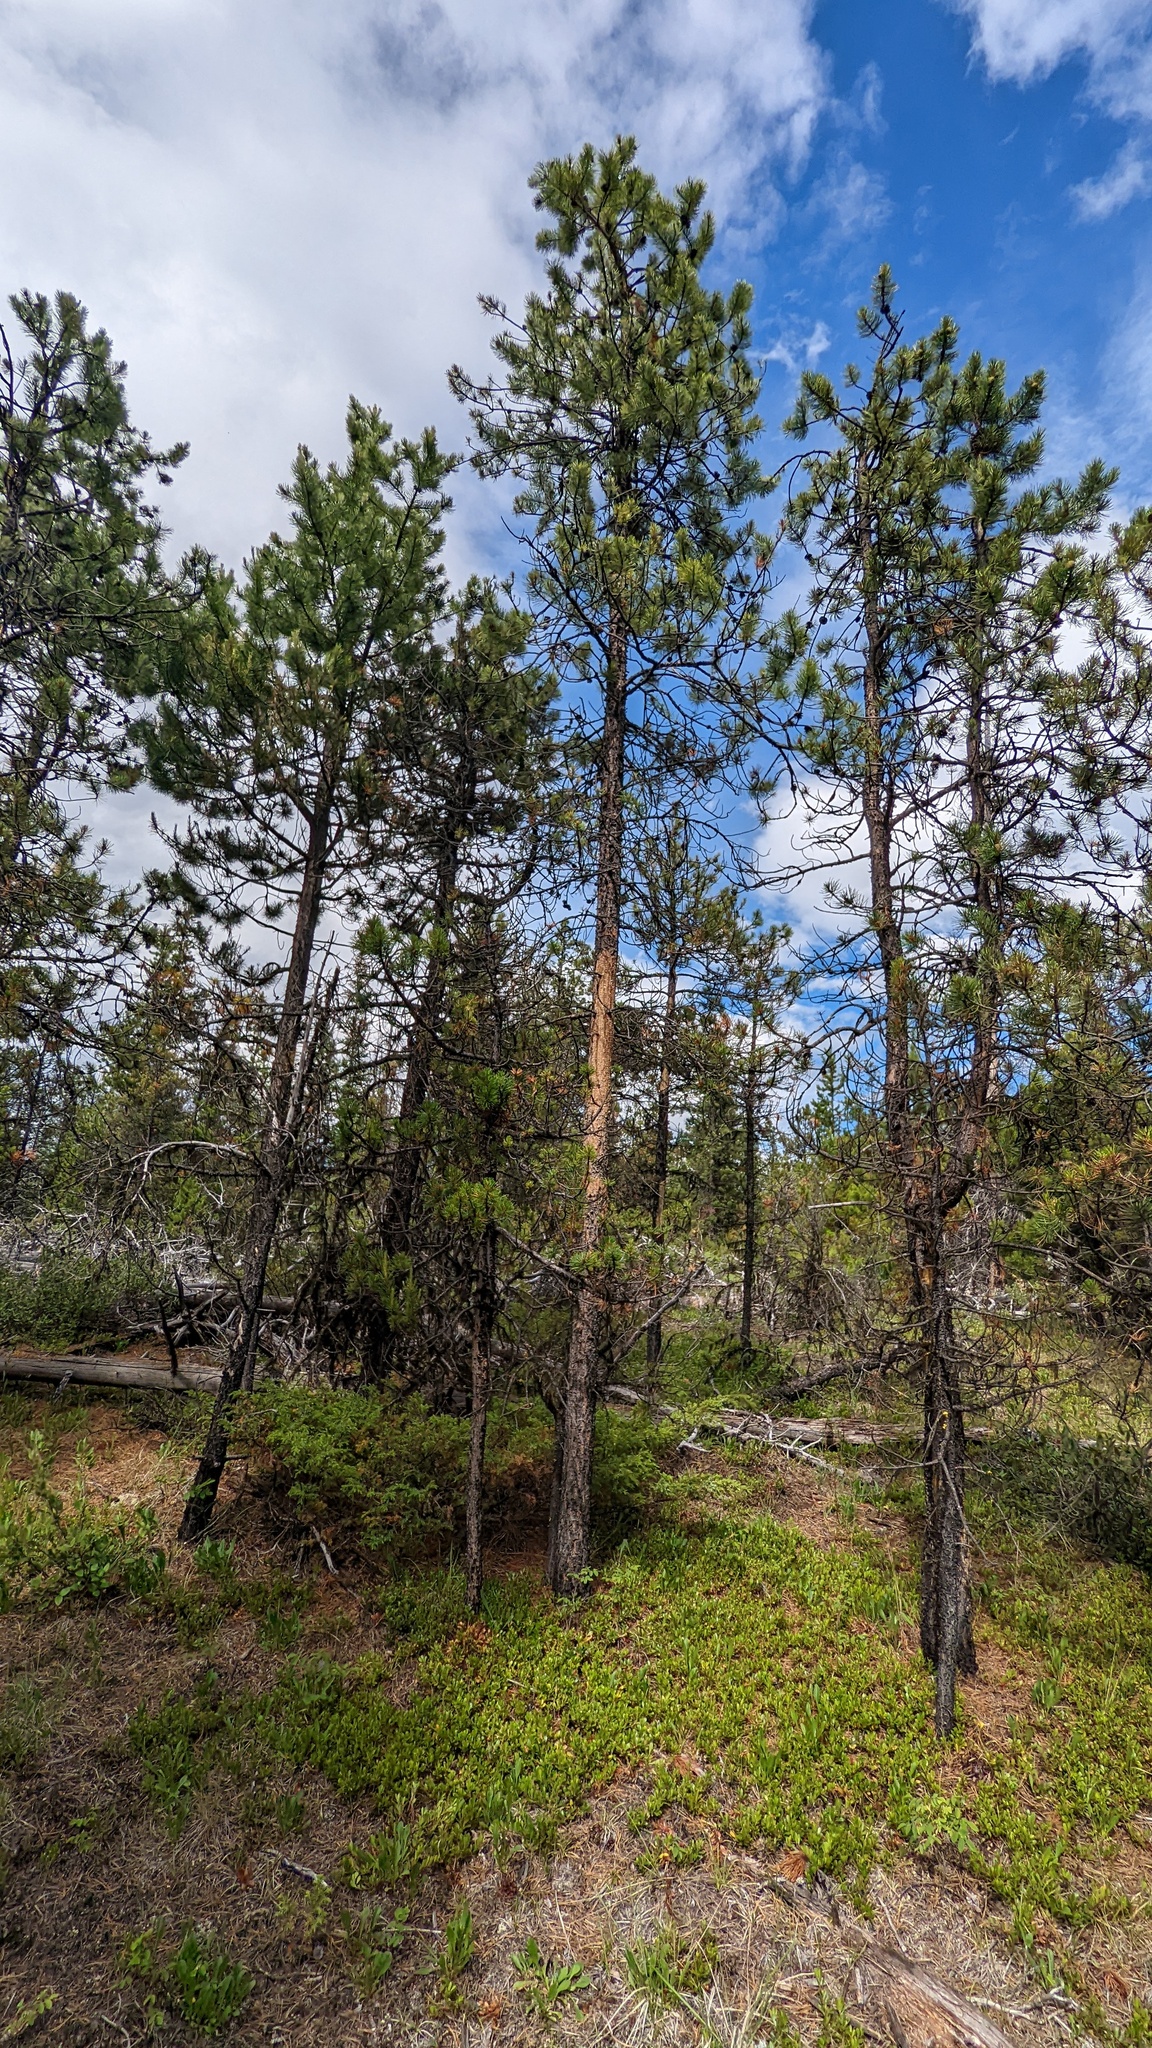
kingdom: Plantae
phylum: Tracheophyta
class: Pinopsida
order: Pinales
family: Pinaceae
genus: Pinus
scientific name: Pinus contorta
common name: Lodgepole pine
